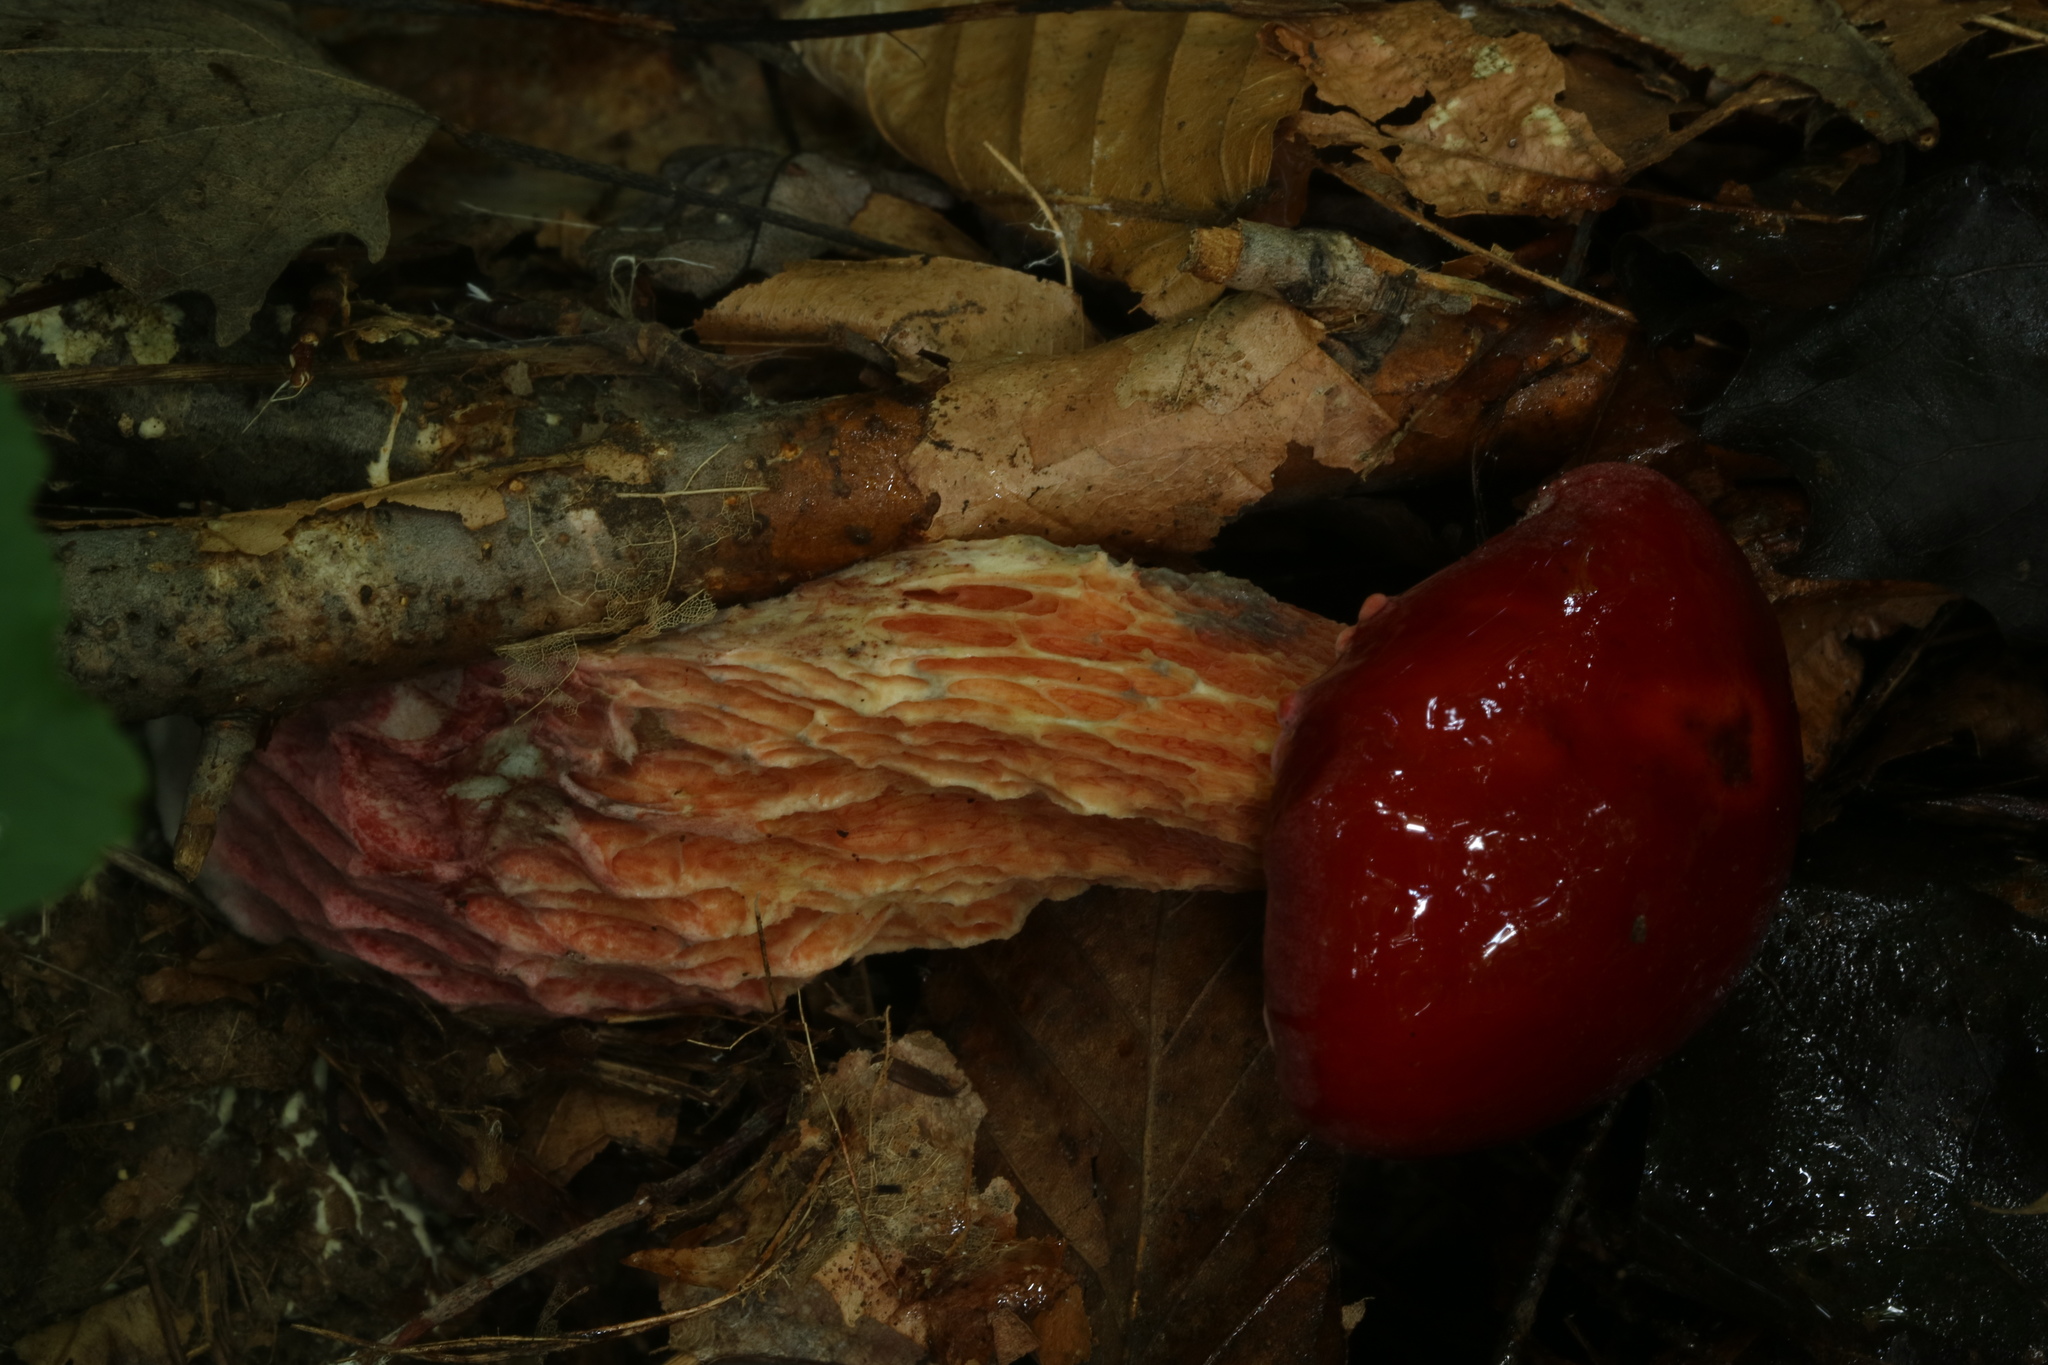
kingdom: Fungi
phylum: Basidiomycota
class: Agaricomycetes
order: Boletales
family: Boletaceae
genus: Butyriboletus
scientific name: Butyriboletus frostii
